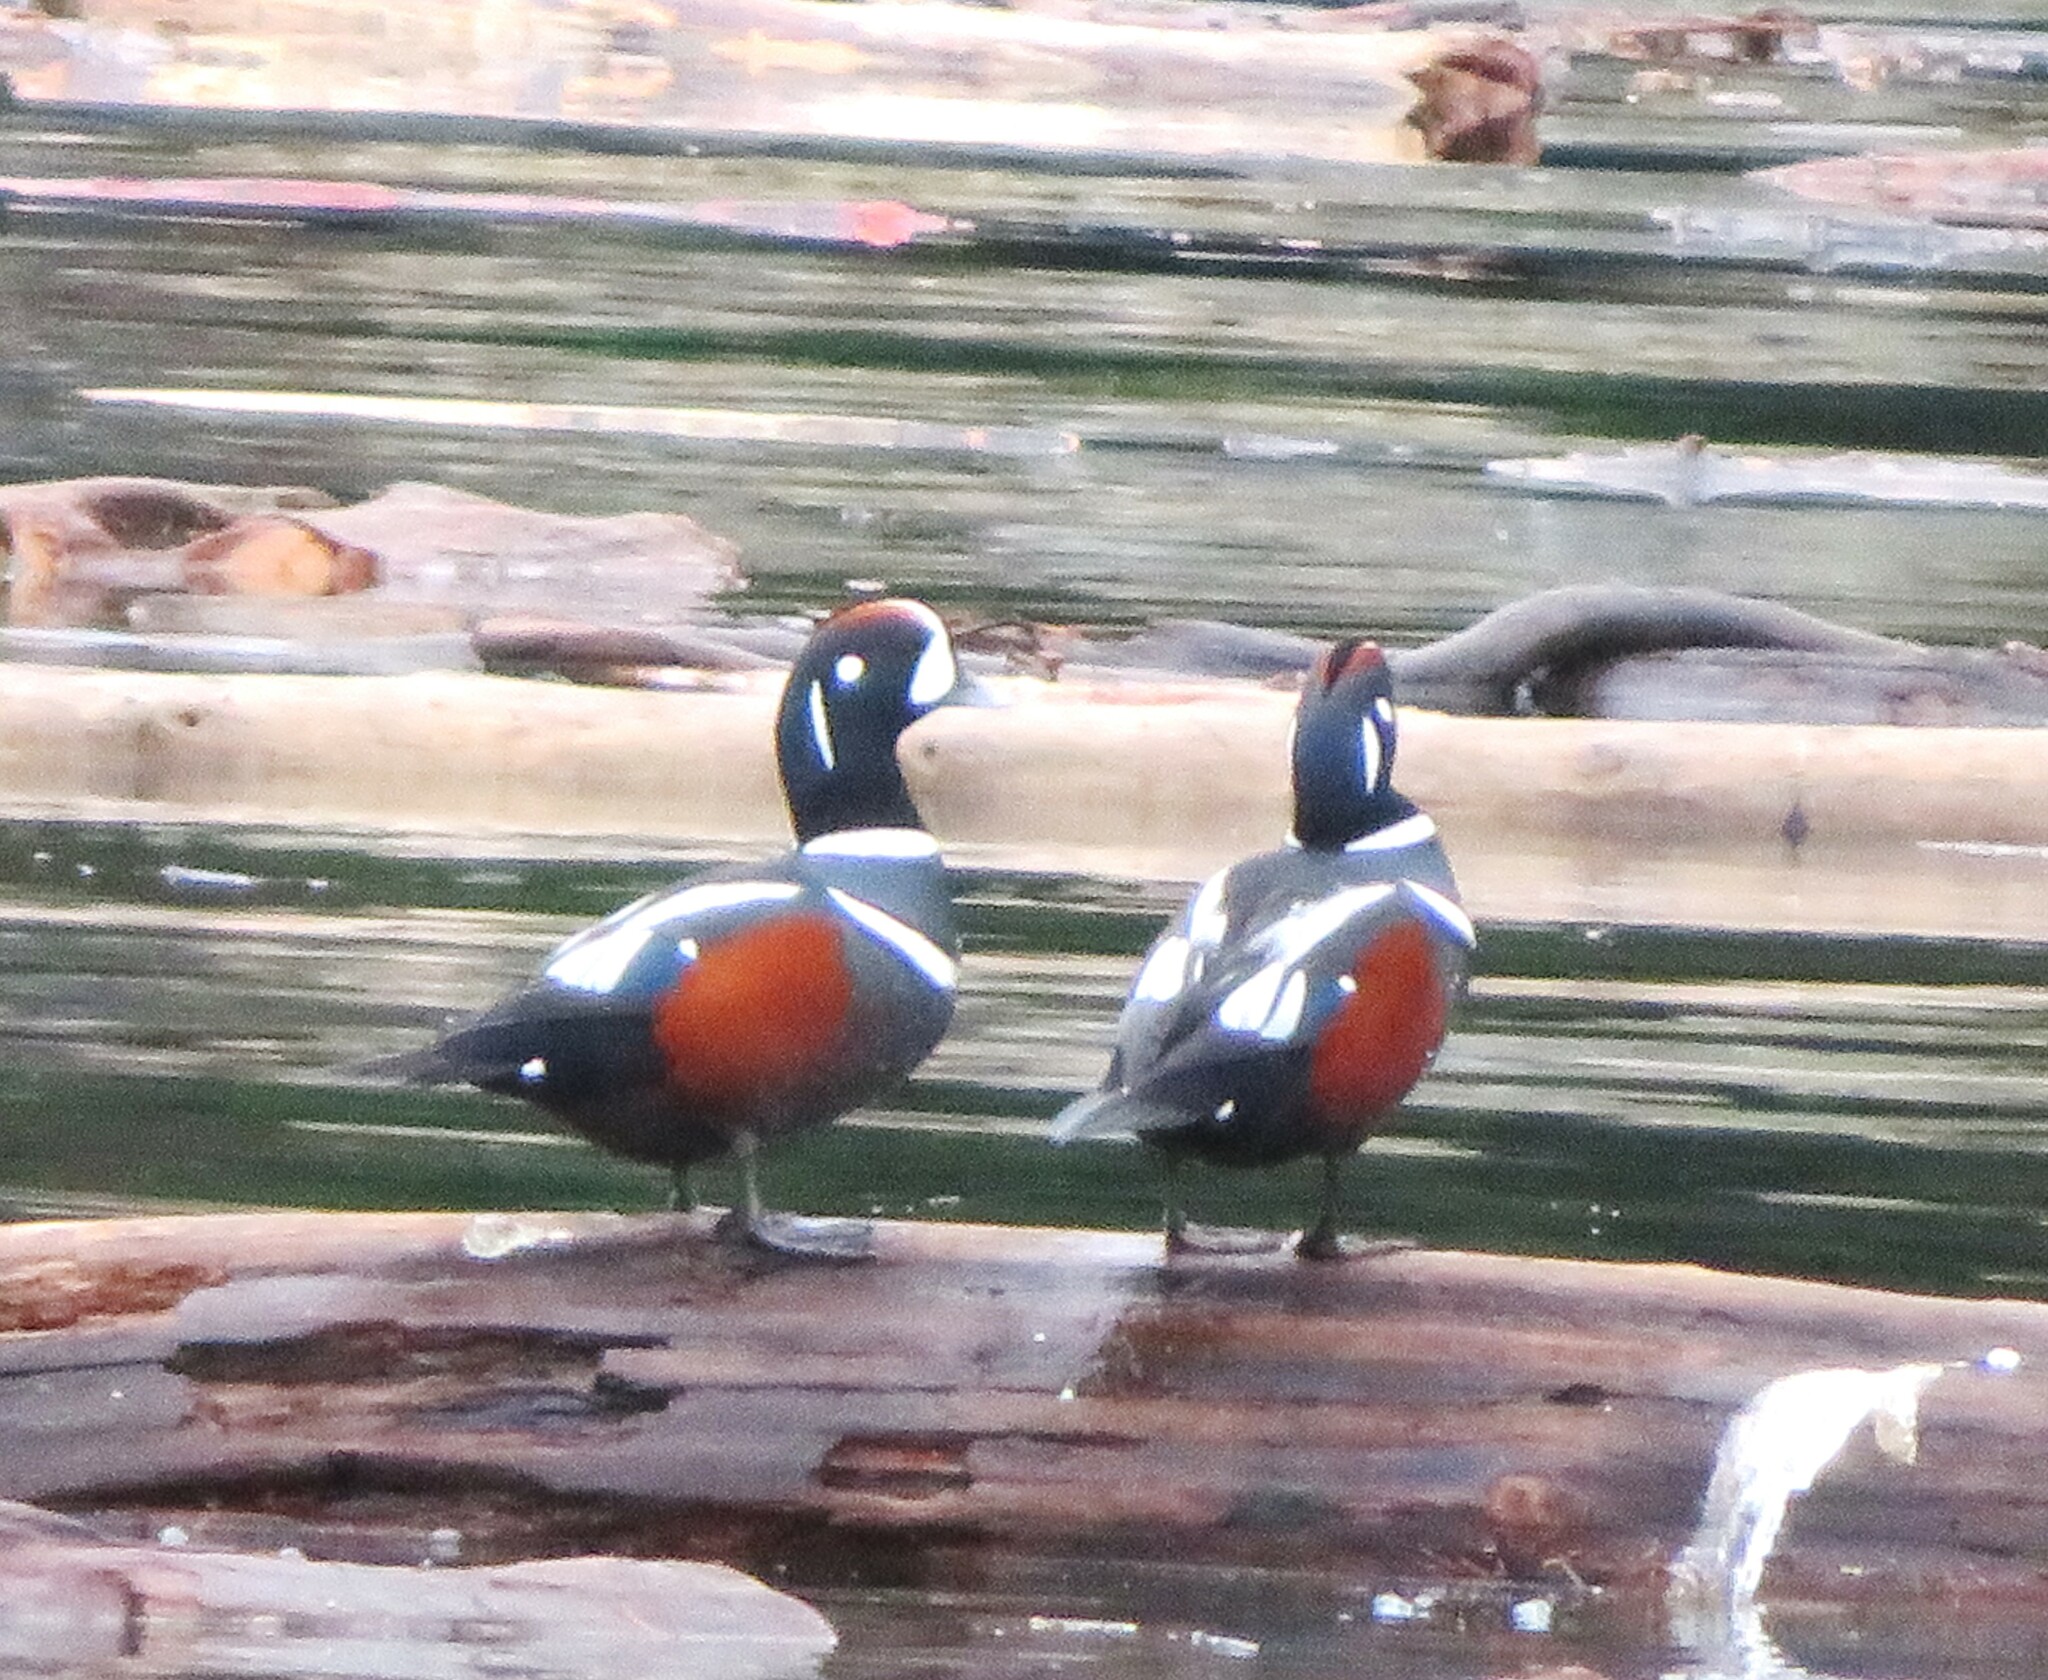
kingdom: Animalia
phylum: Chordata
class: Aves
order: Anseriformes
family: Anatidae
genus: Histrionicus
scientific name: Histrionicus histrionicus
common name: Harlequin duck
